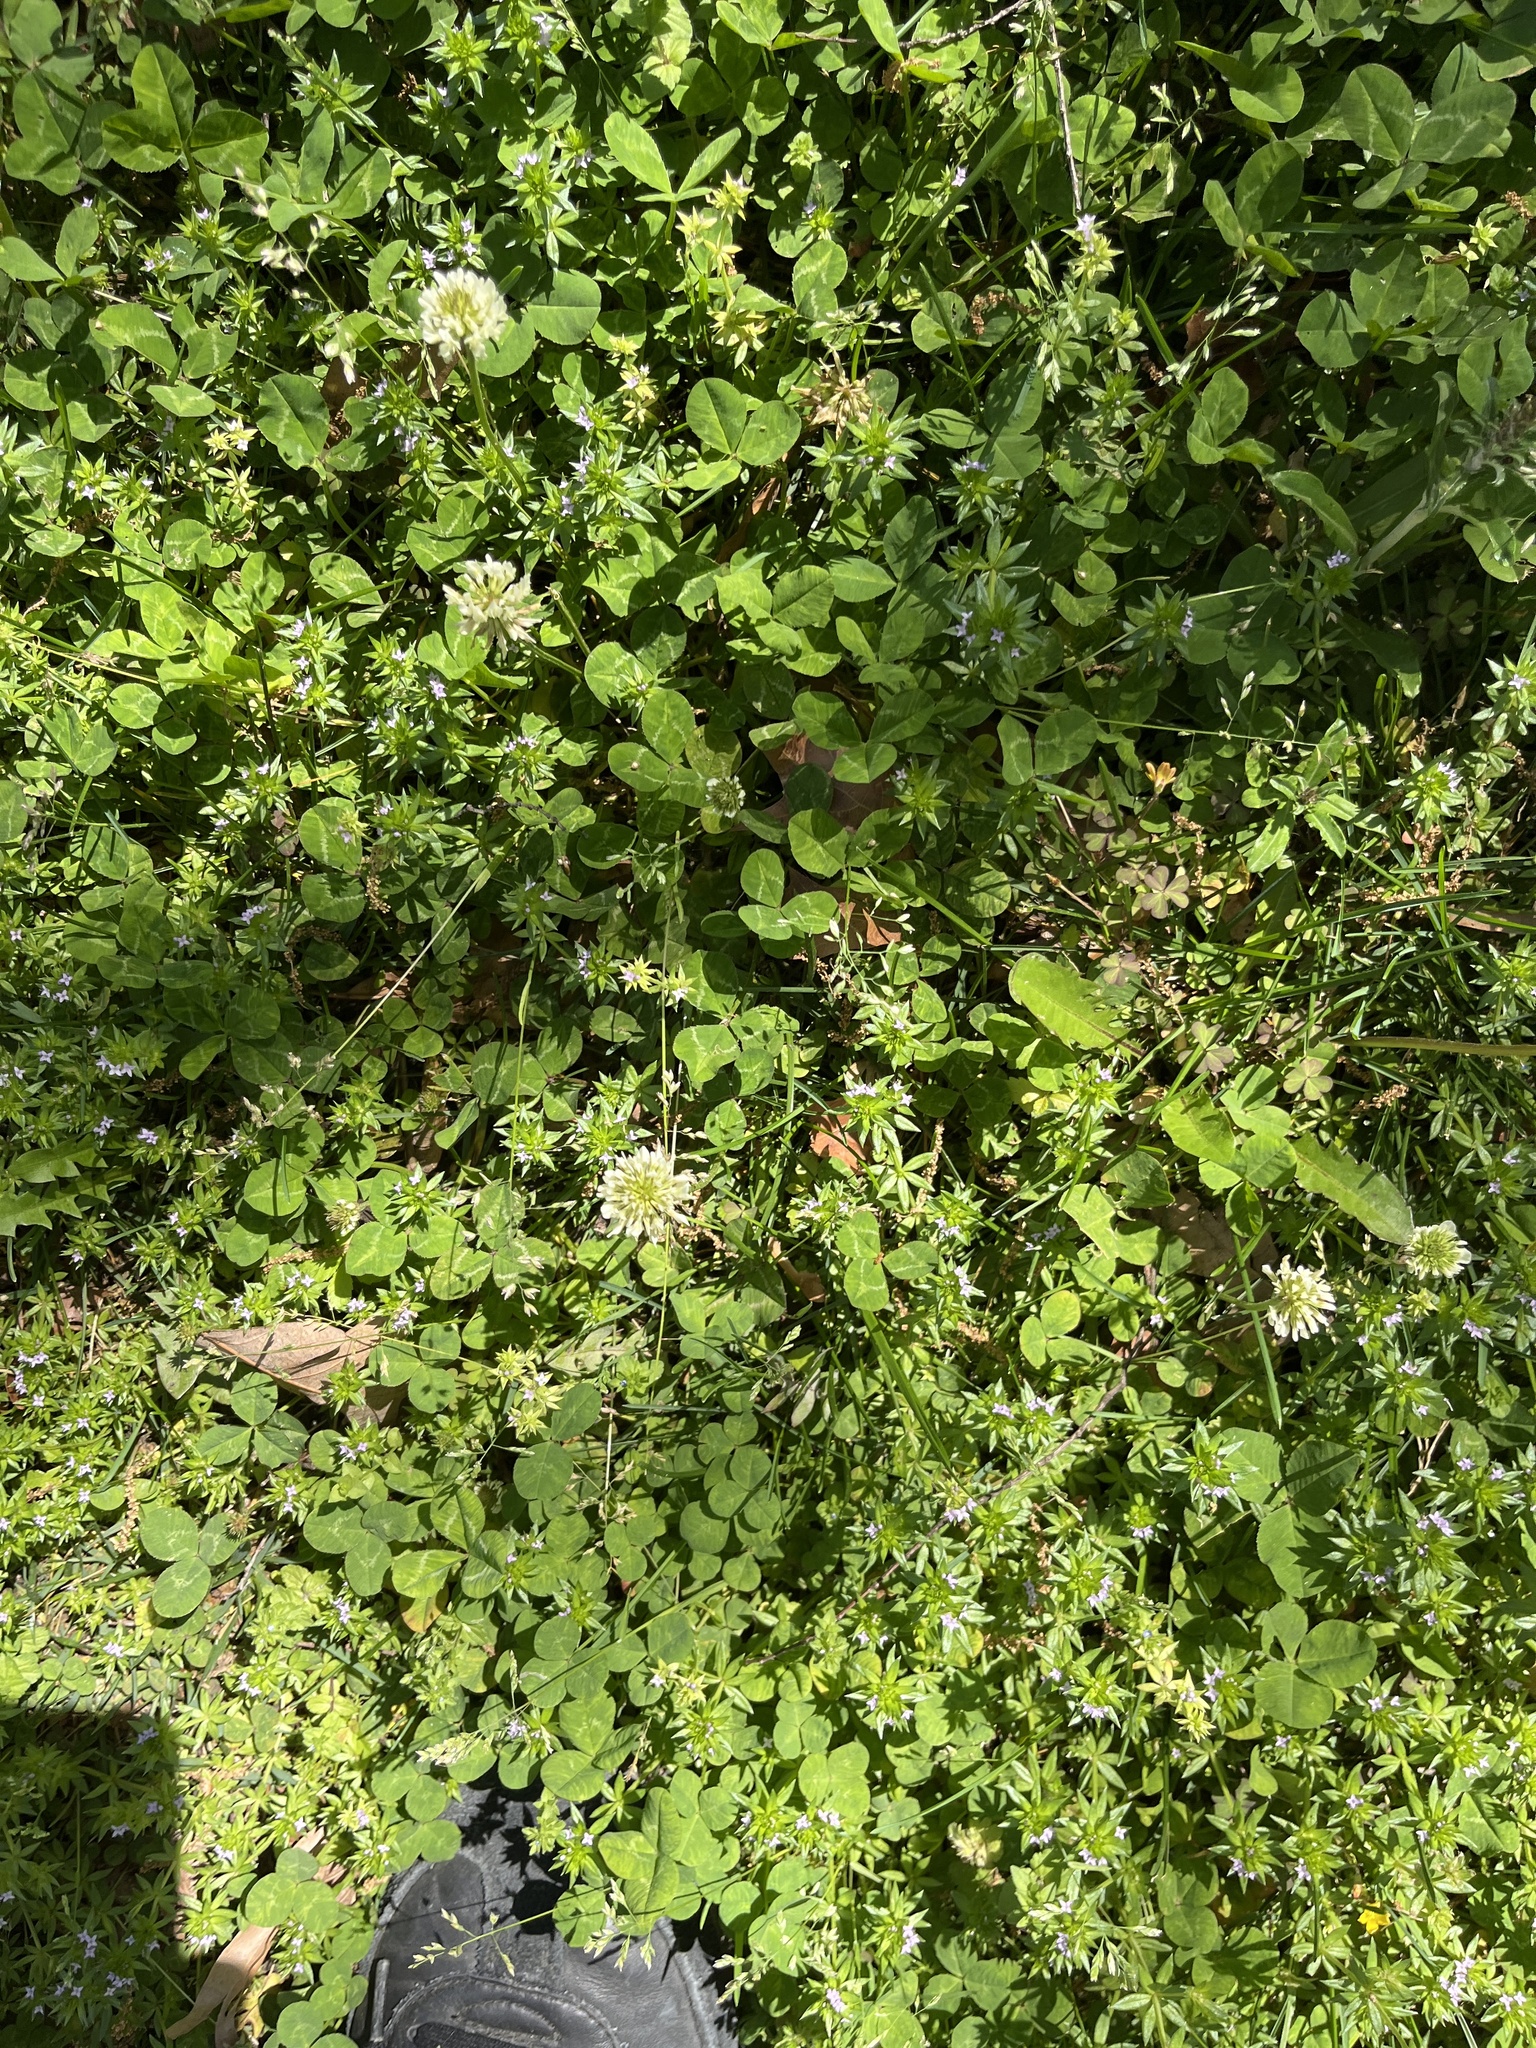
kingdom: Plantae
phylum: Tracheophyta
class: Magnoliopsida
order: Fabales
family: Fabaceae
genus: Trifolium
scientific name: Trifolium repens
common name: White clover
